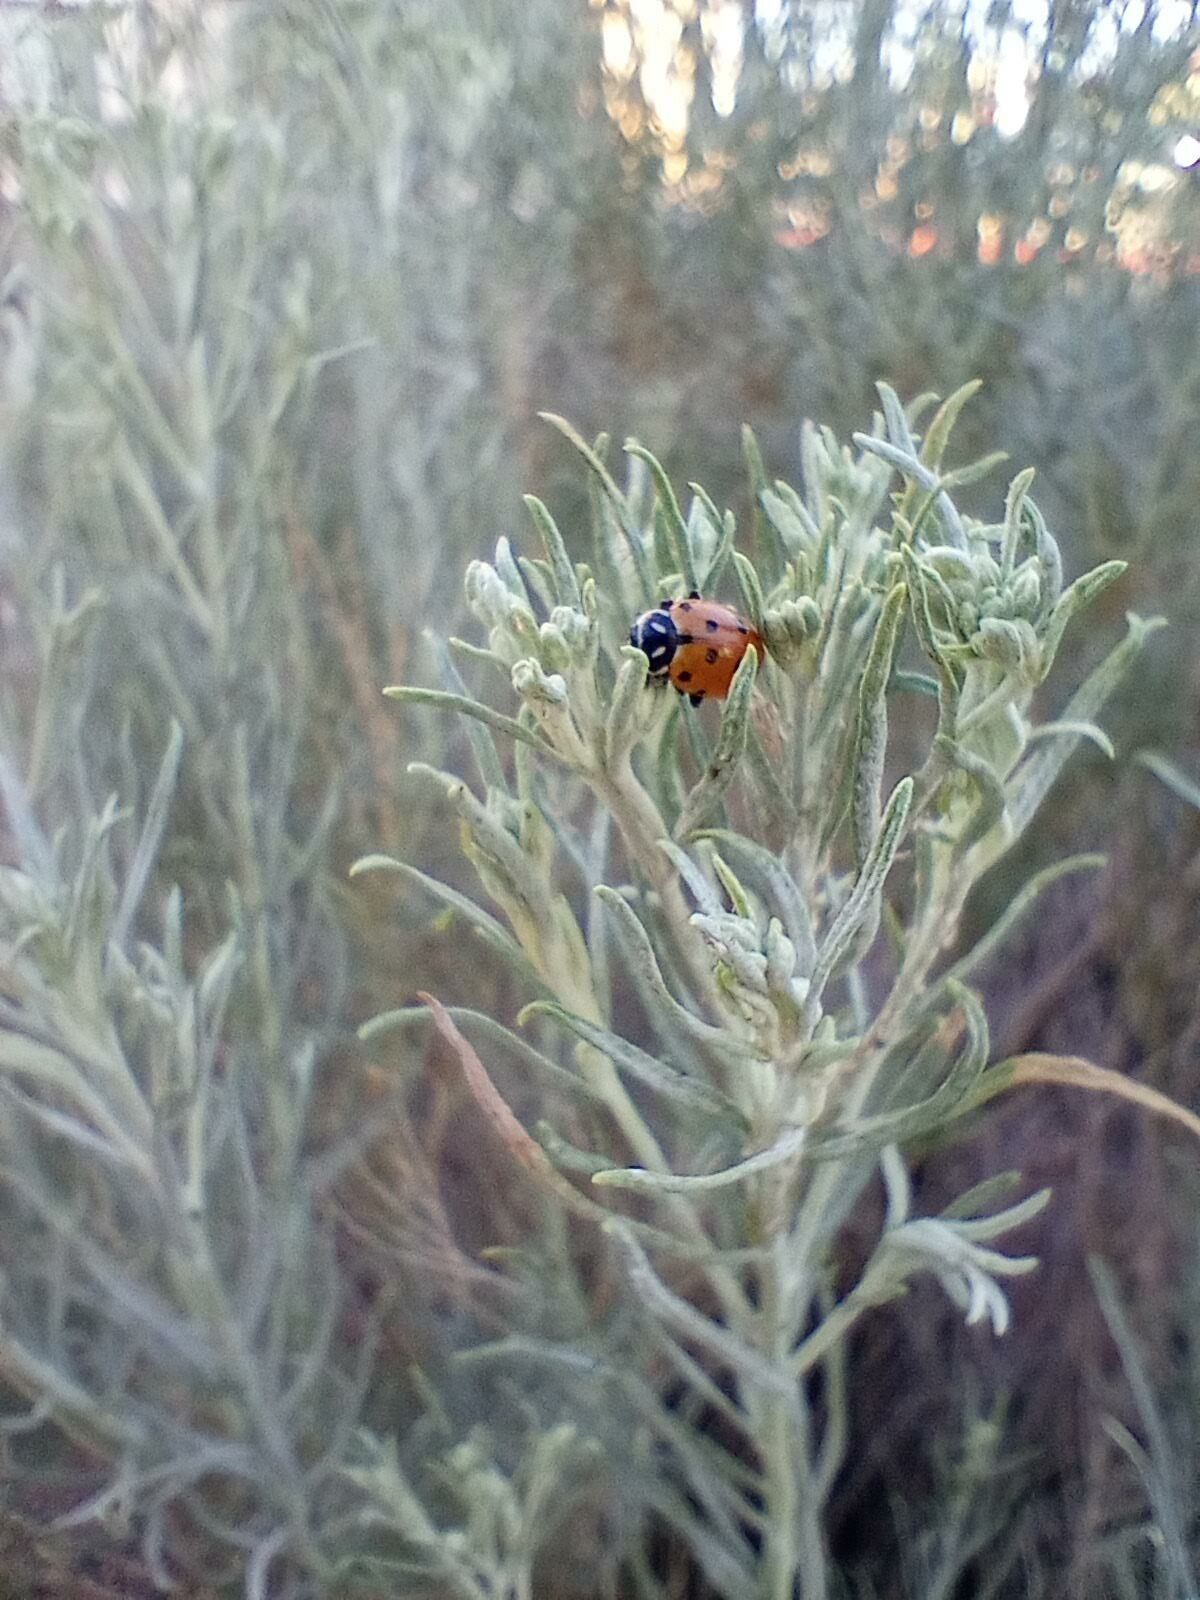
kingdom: Animalia
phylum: Arthropoda
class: Insecta
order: Coleoptera
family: Coccinellidae
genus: Hippodamia
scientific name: Hippodamia convergens
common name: Convergent lady beetle
